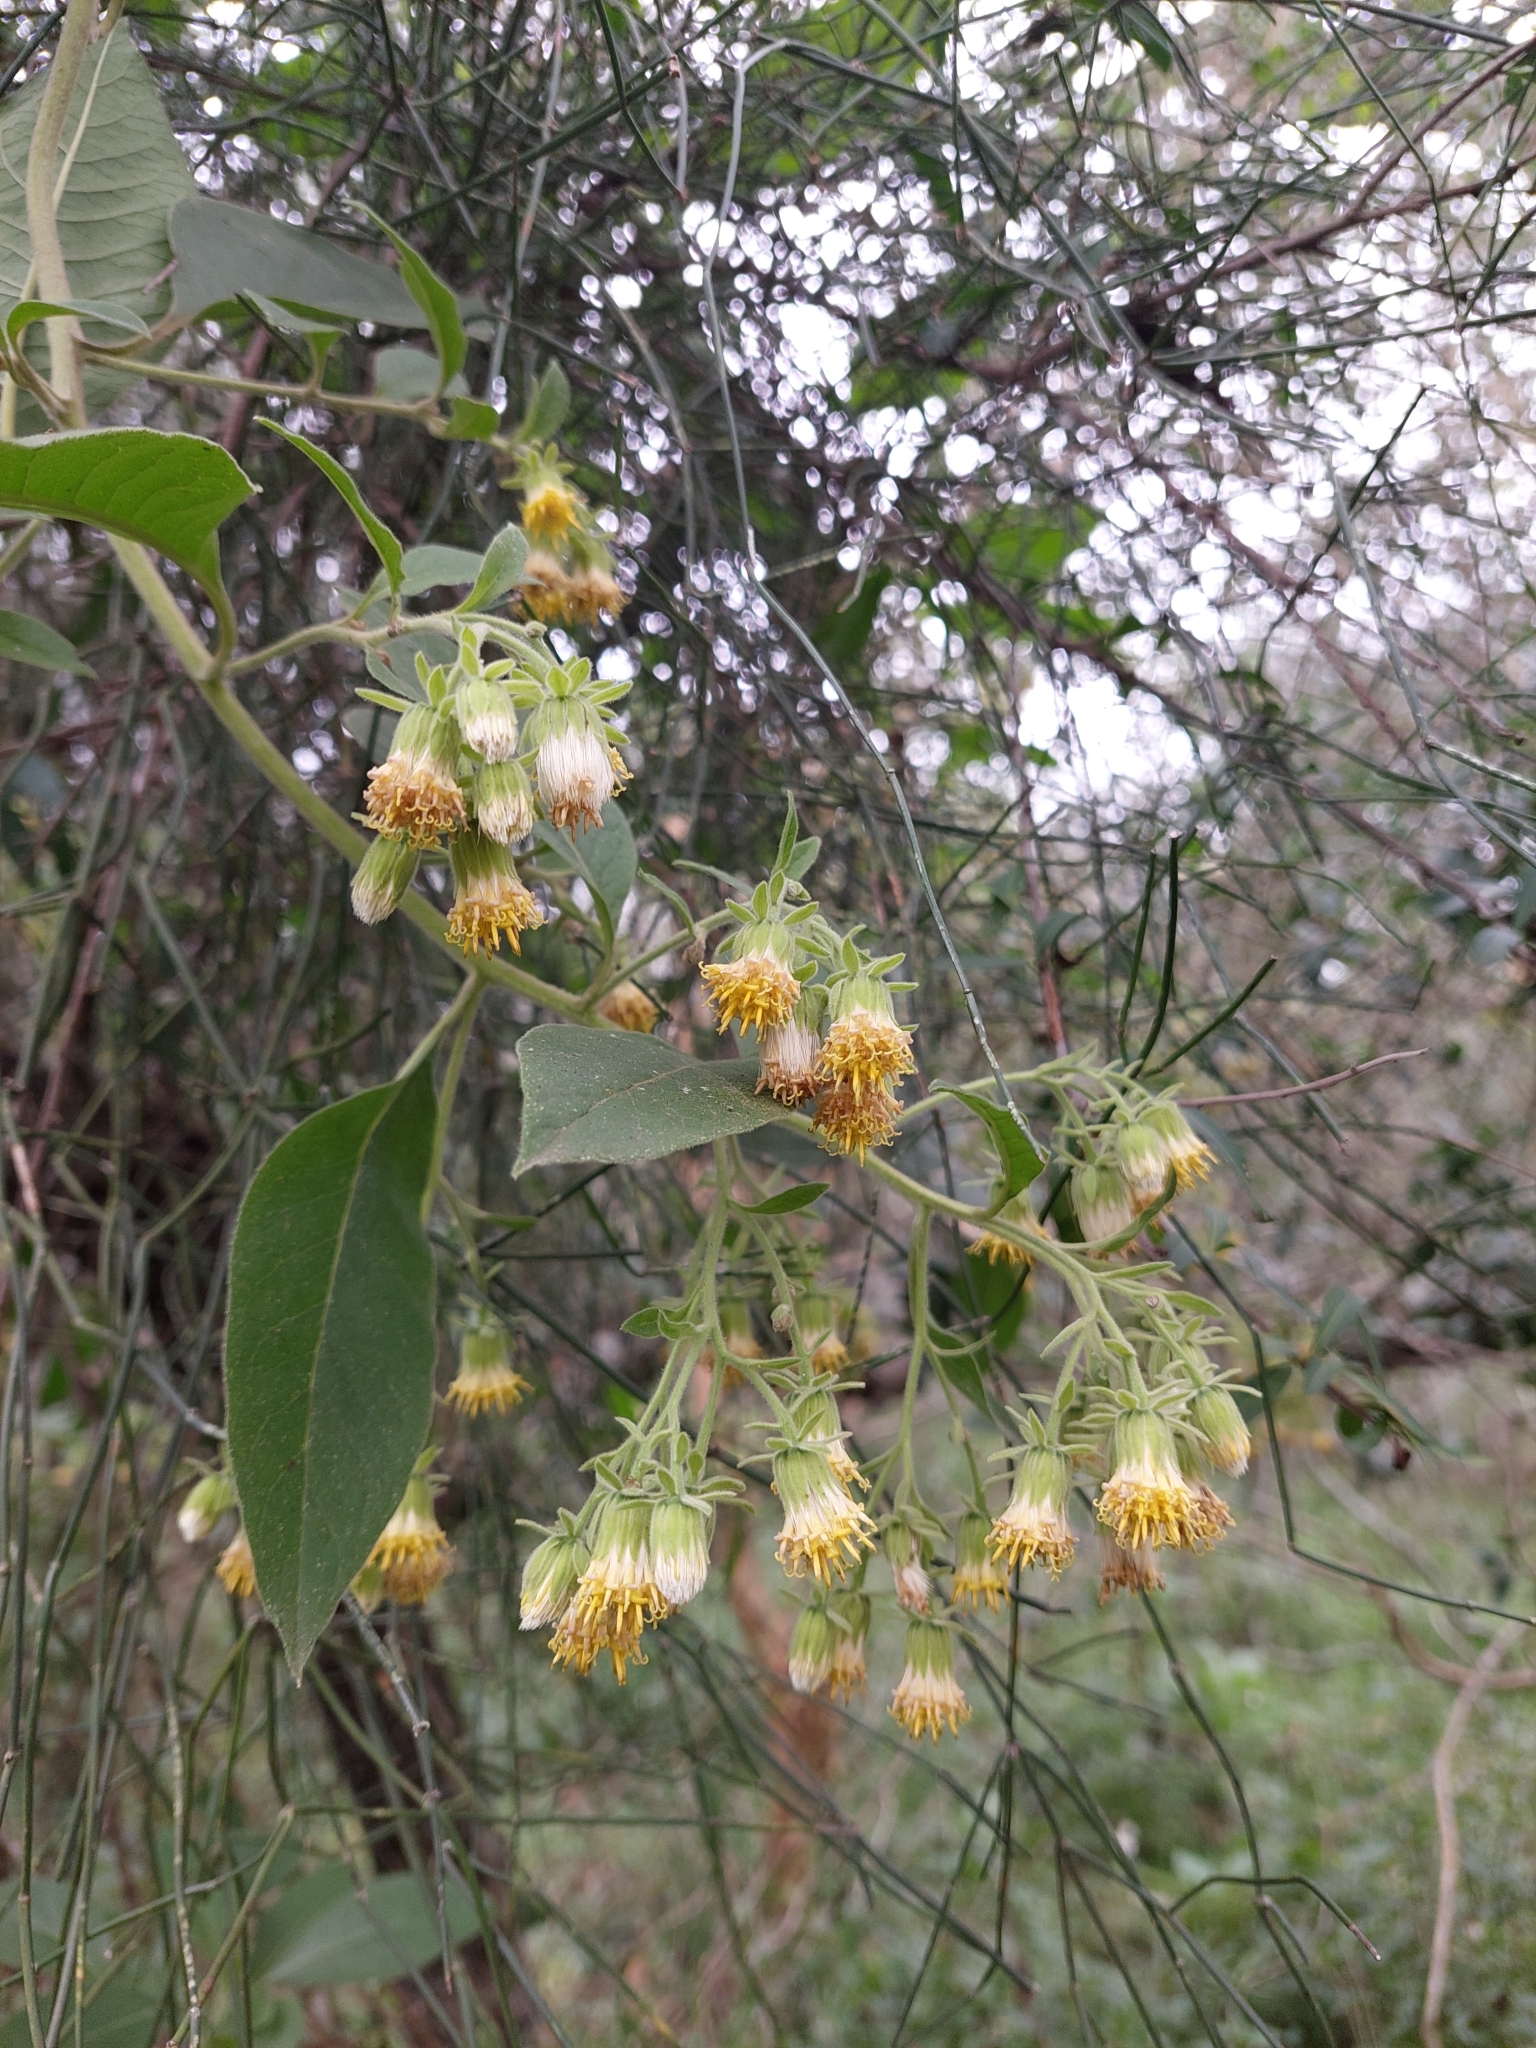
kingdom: Plantae
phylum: Tracheophyta
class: Magnoliopsida
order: Asterales
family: Asteraceae
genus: Trixis
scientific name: Trixis praestans
